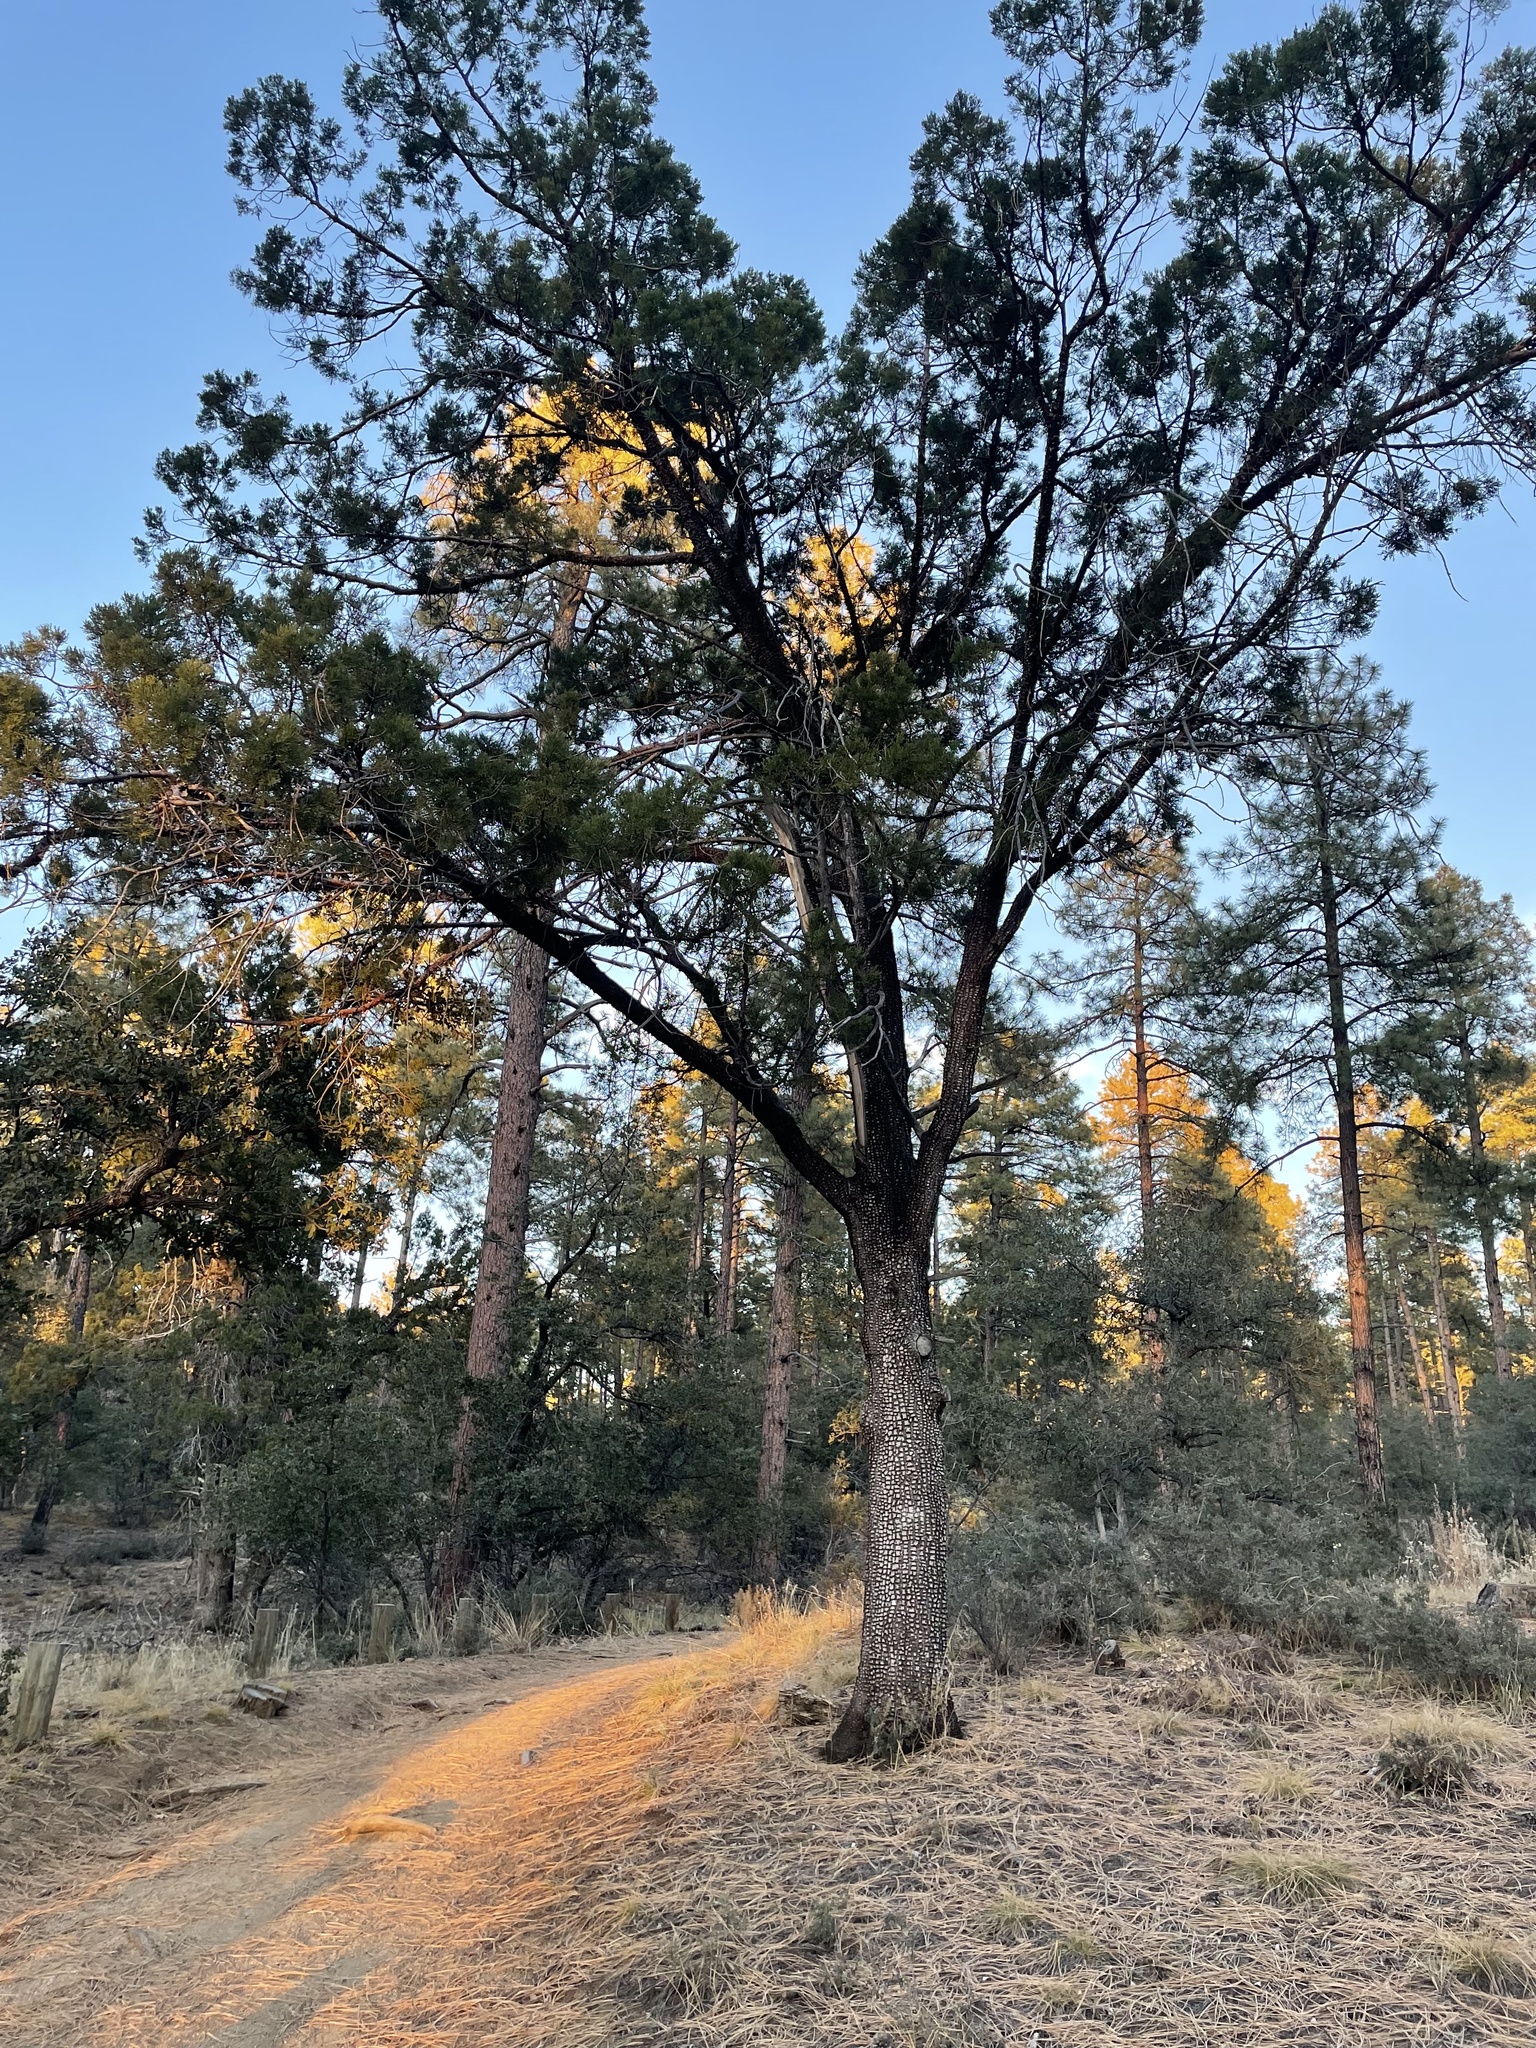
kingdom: Plantae
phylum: Tracheophyta
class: Pinopsida
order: Pinales
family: Cupressaceae
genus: Juniperus
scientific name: Juniperus deppeana
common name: Alligator juniper
